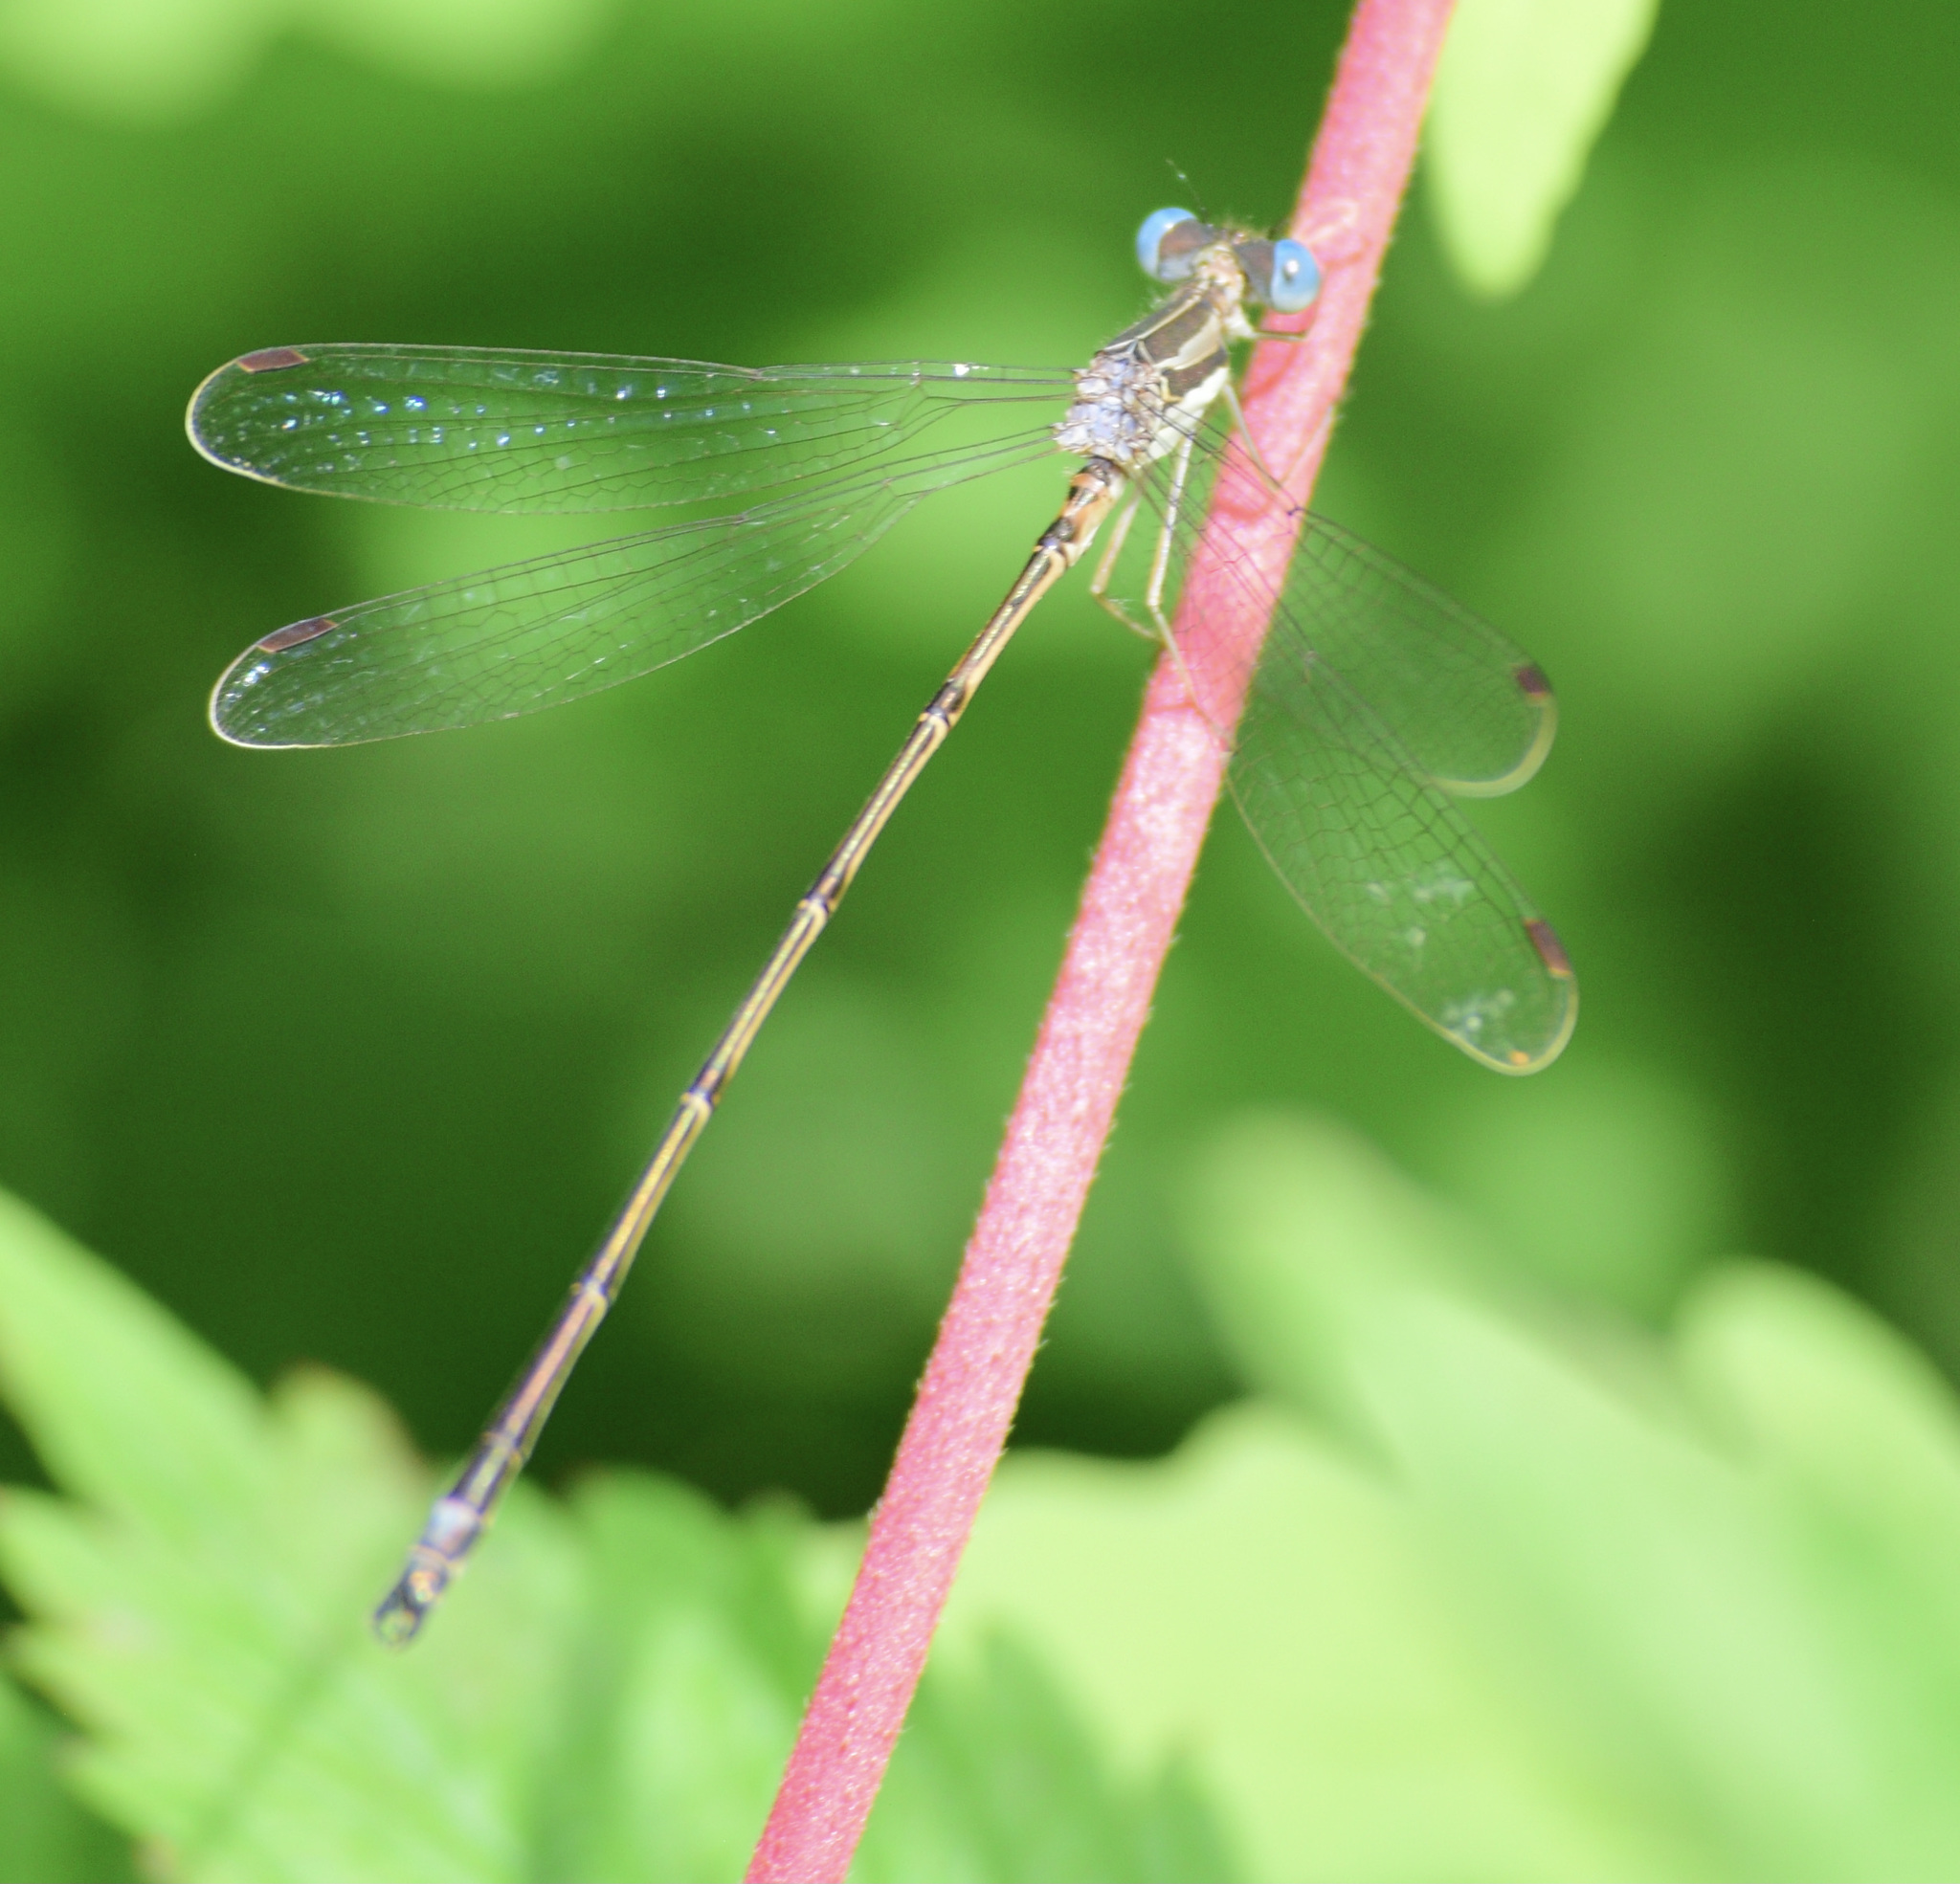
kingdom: Animalia
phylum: Arthropoda
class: Insecta
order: Odonata
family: Lestidae
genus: Lestes
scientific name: Lestes rectangularis
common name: Slender spreadwing
